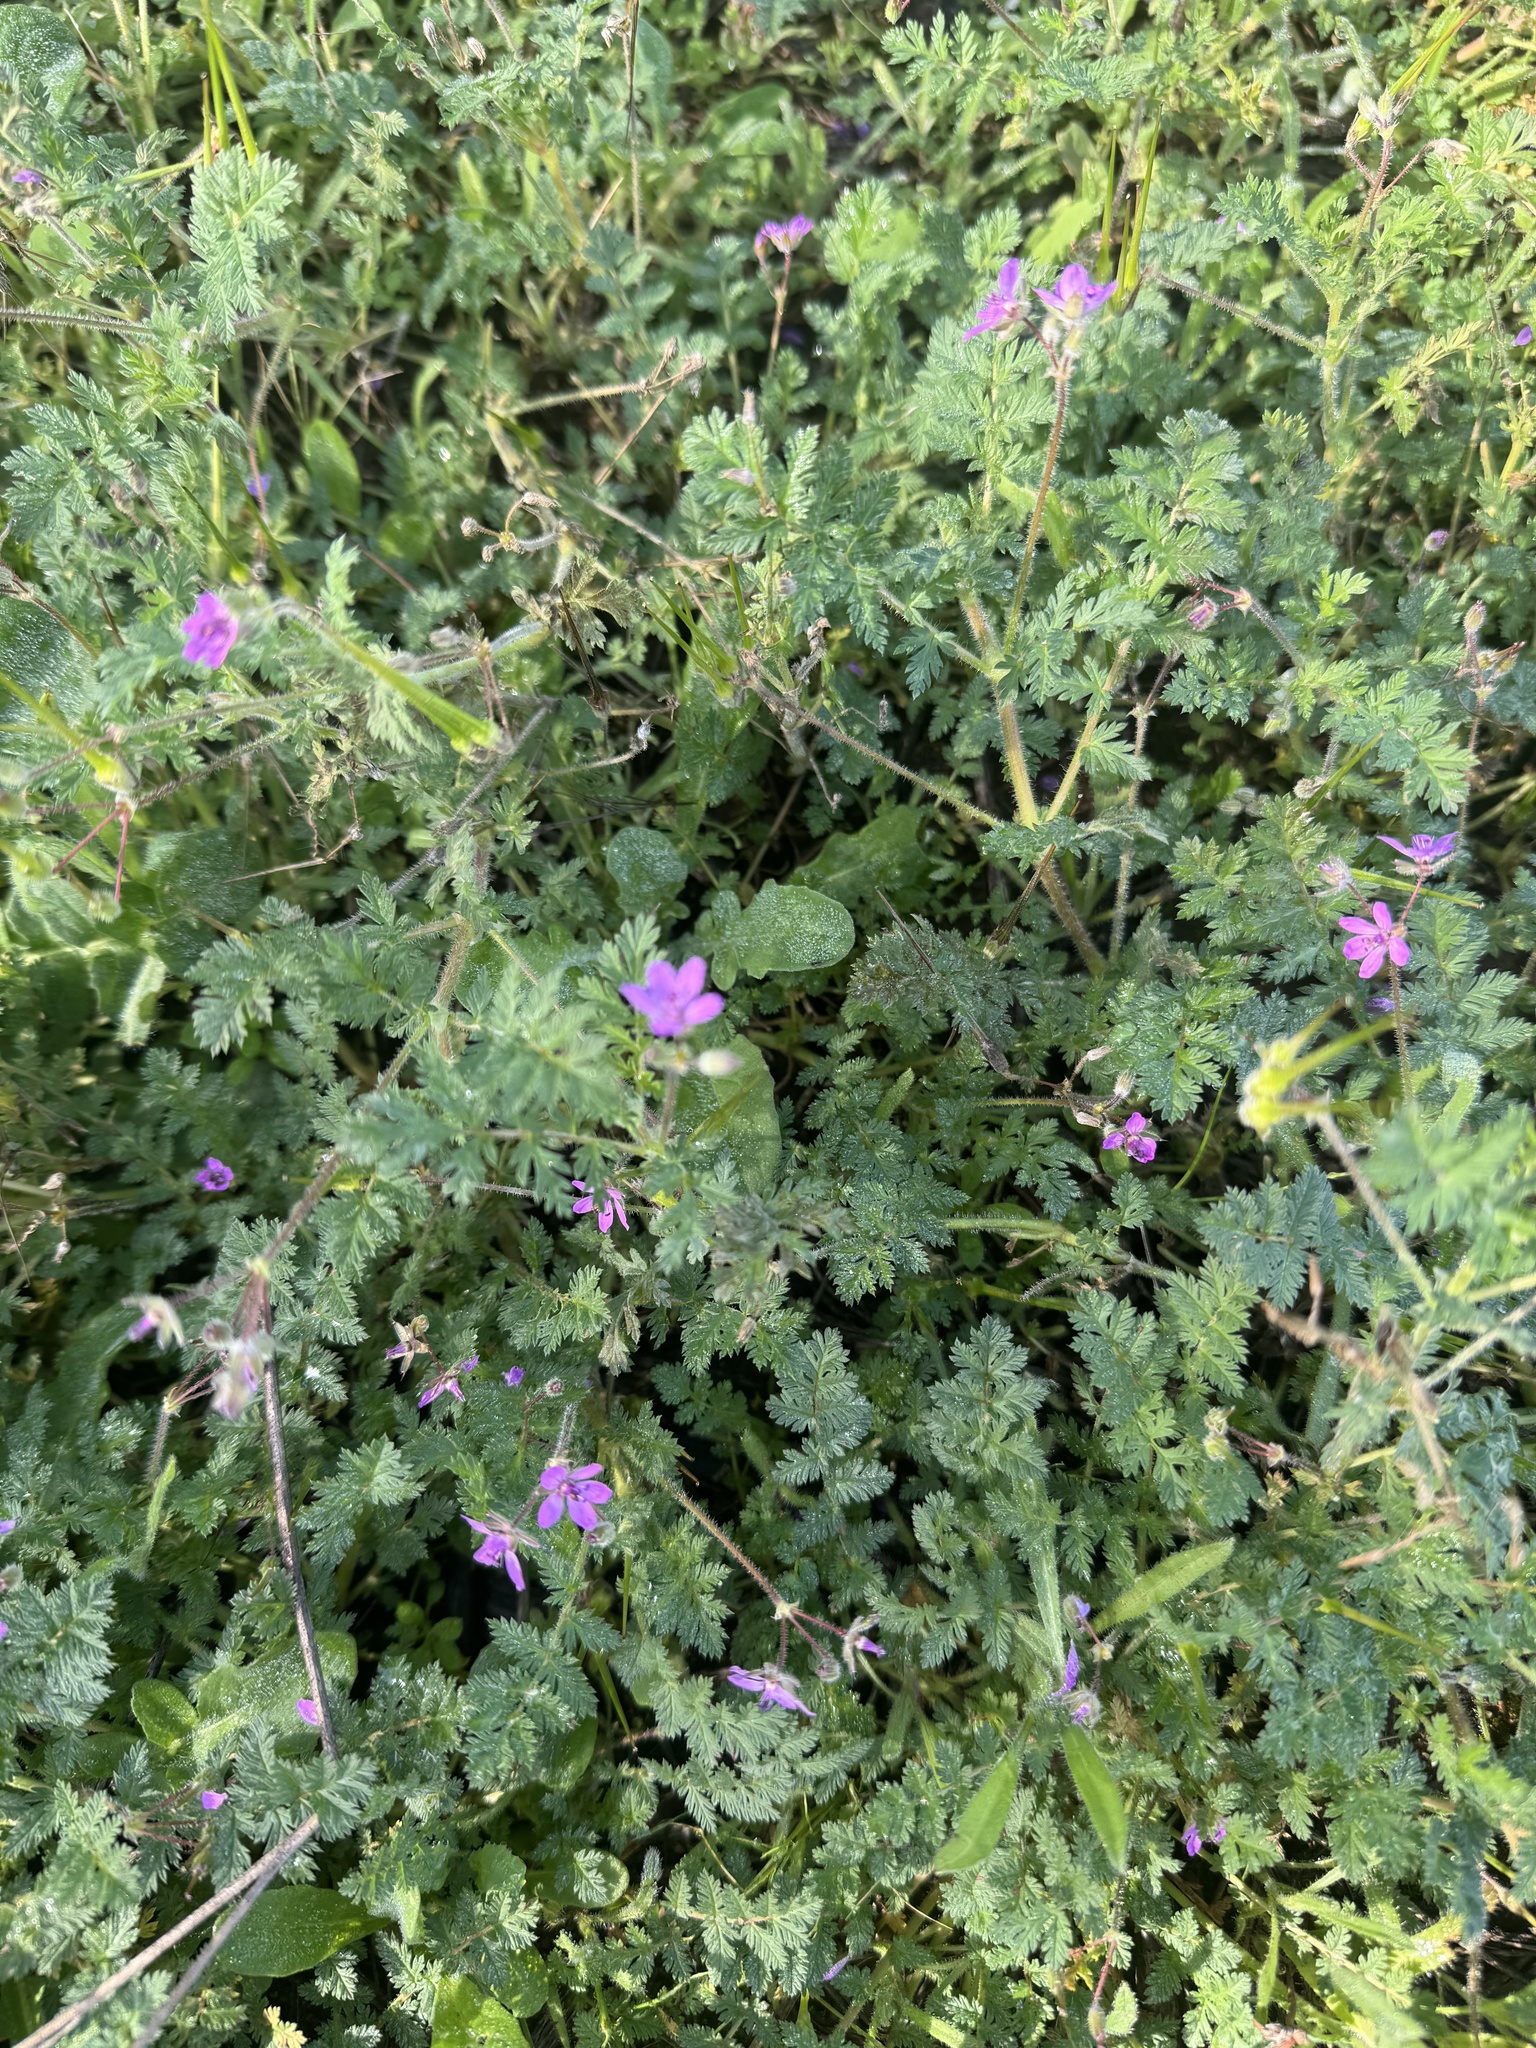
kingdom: Plantae
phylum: Tracheophyta
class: Magnoliopsida
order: Geraniales
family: Geraniaceae
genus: Erodium
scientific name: Erodium cicutarium
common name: Common stork's-bill
